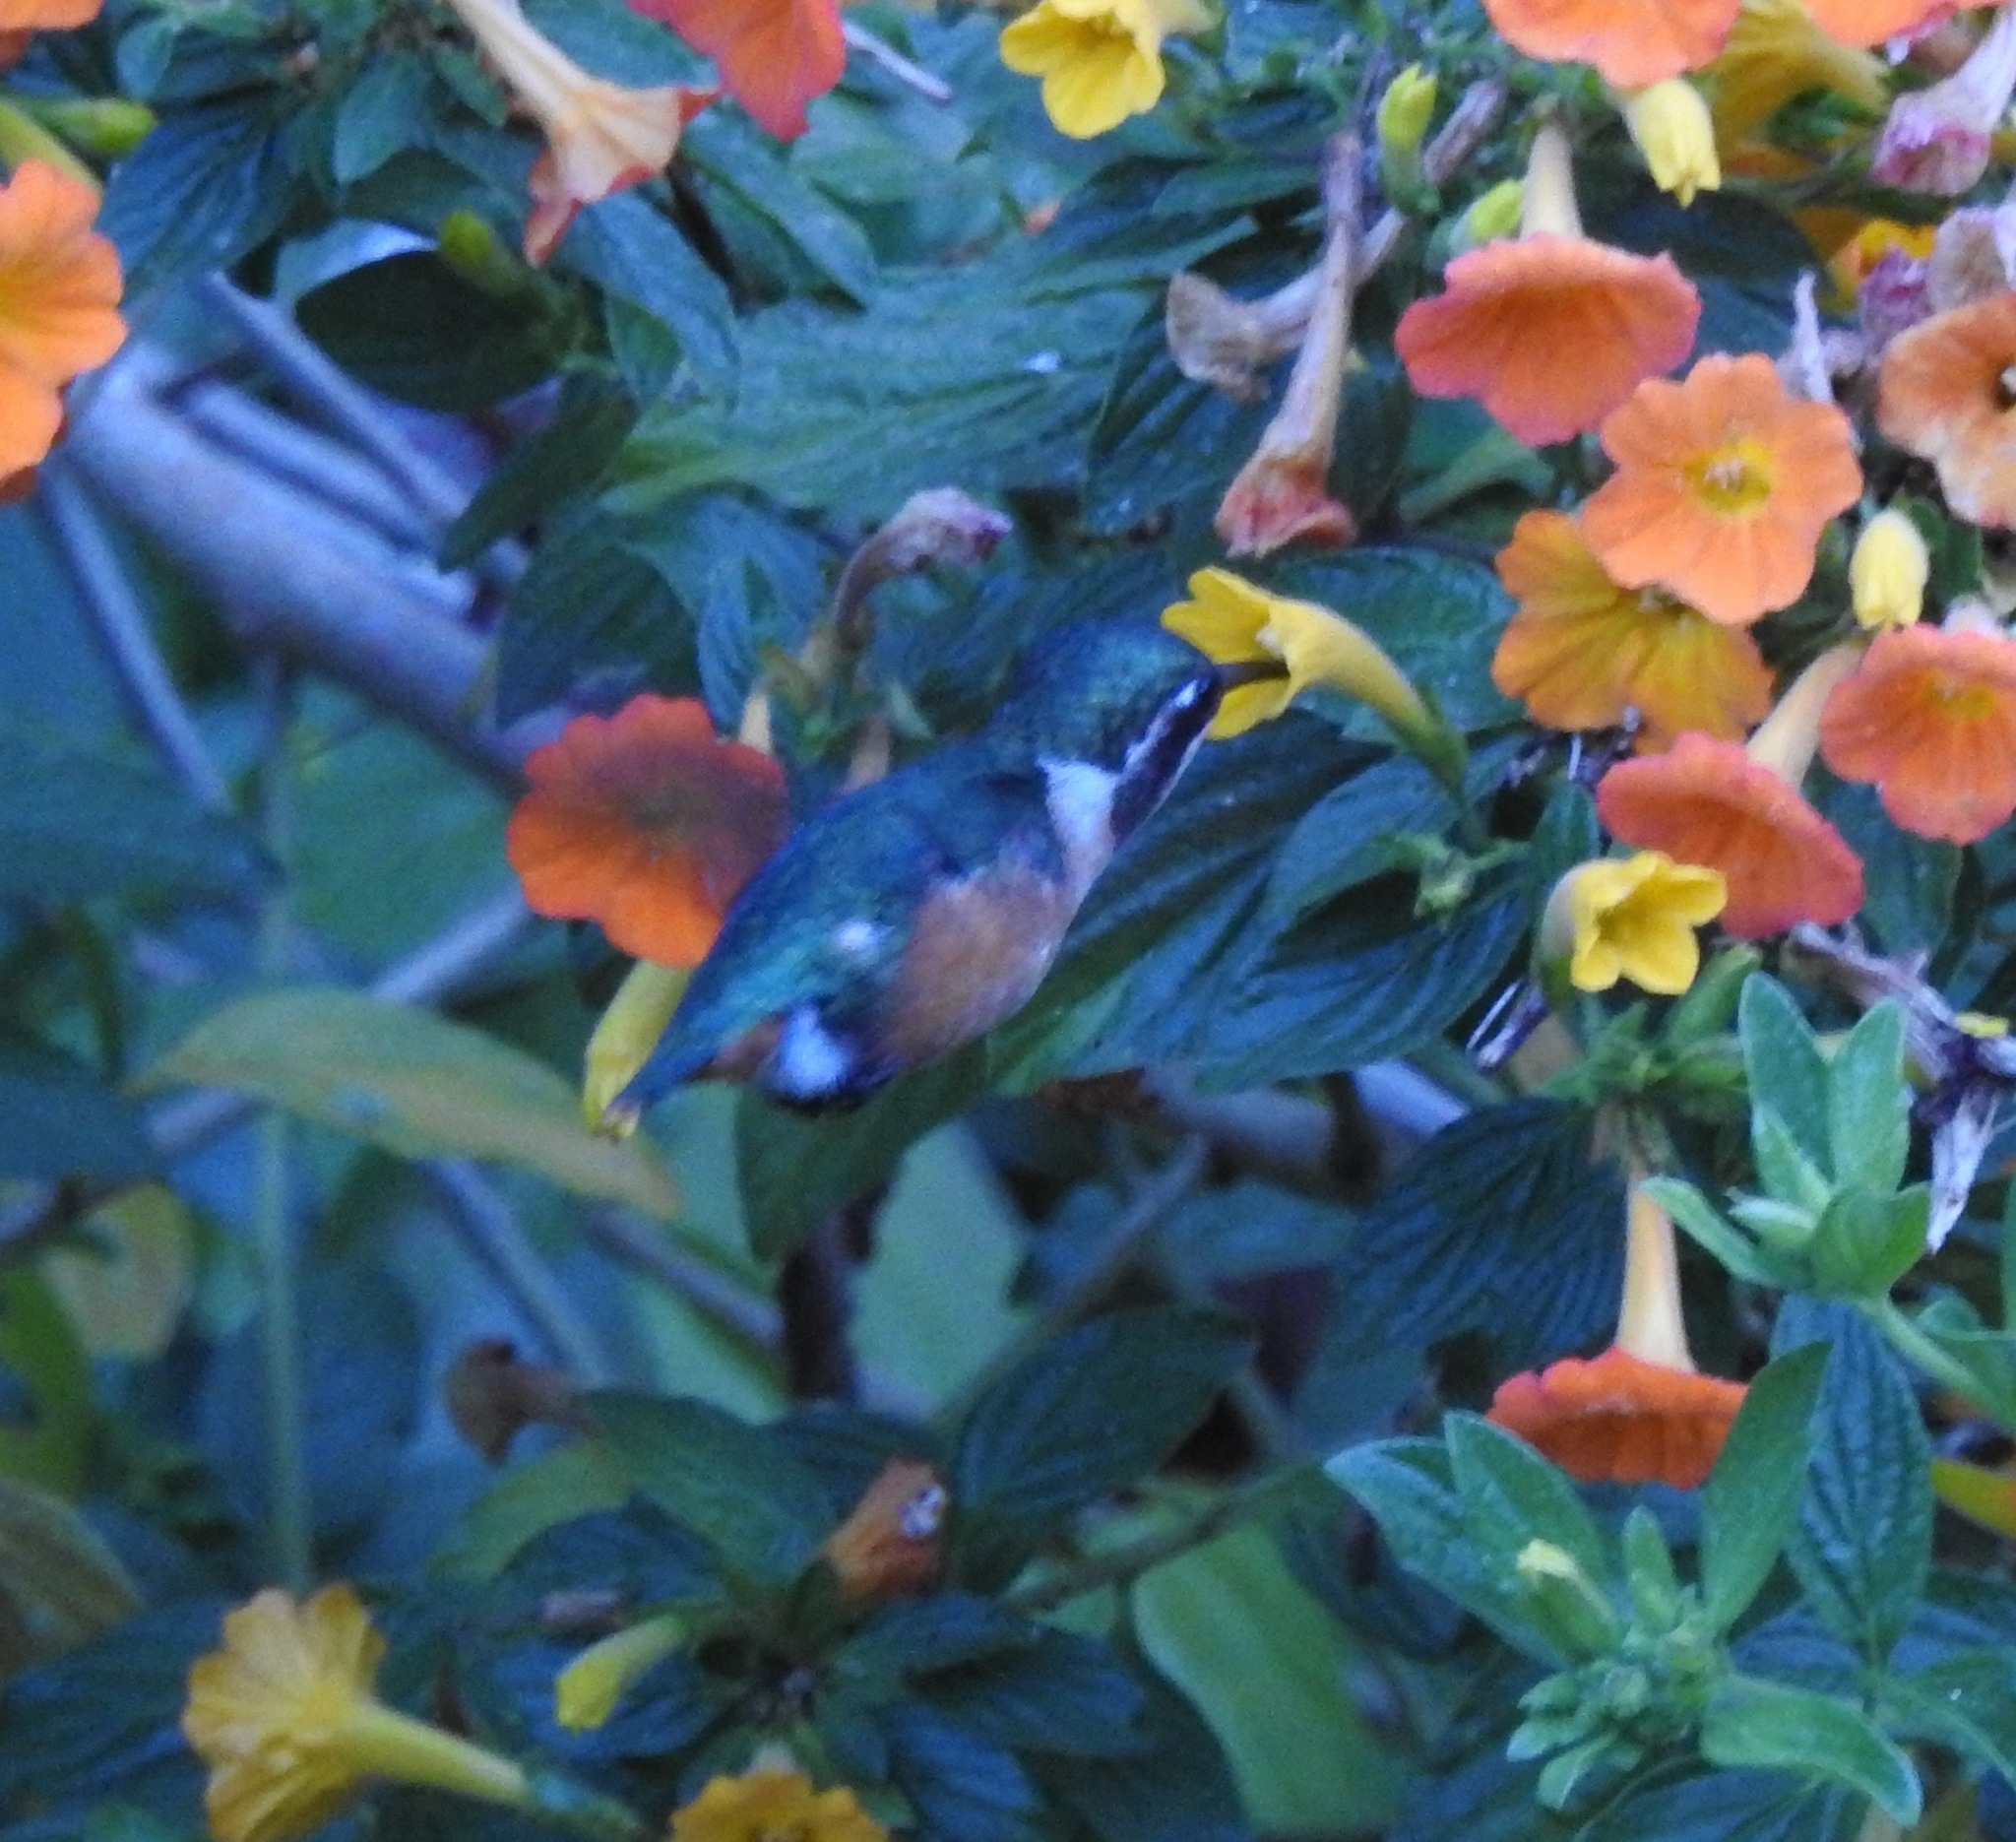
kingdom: Animalia
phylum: Chordata
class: Aves
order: Apodiformes
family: Trochilidae
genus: Chaetocercus
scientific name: Chaetocercus astreans
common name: Santa marta woodstar
